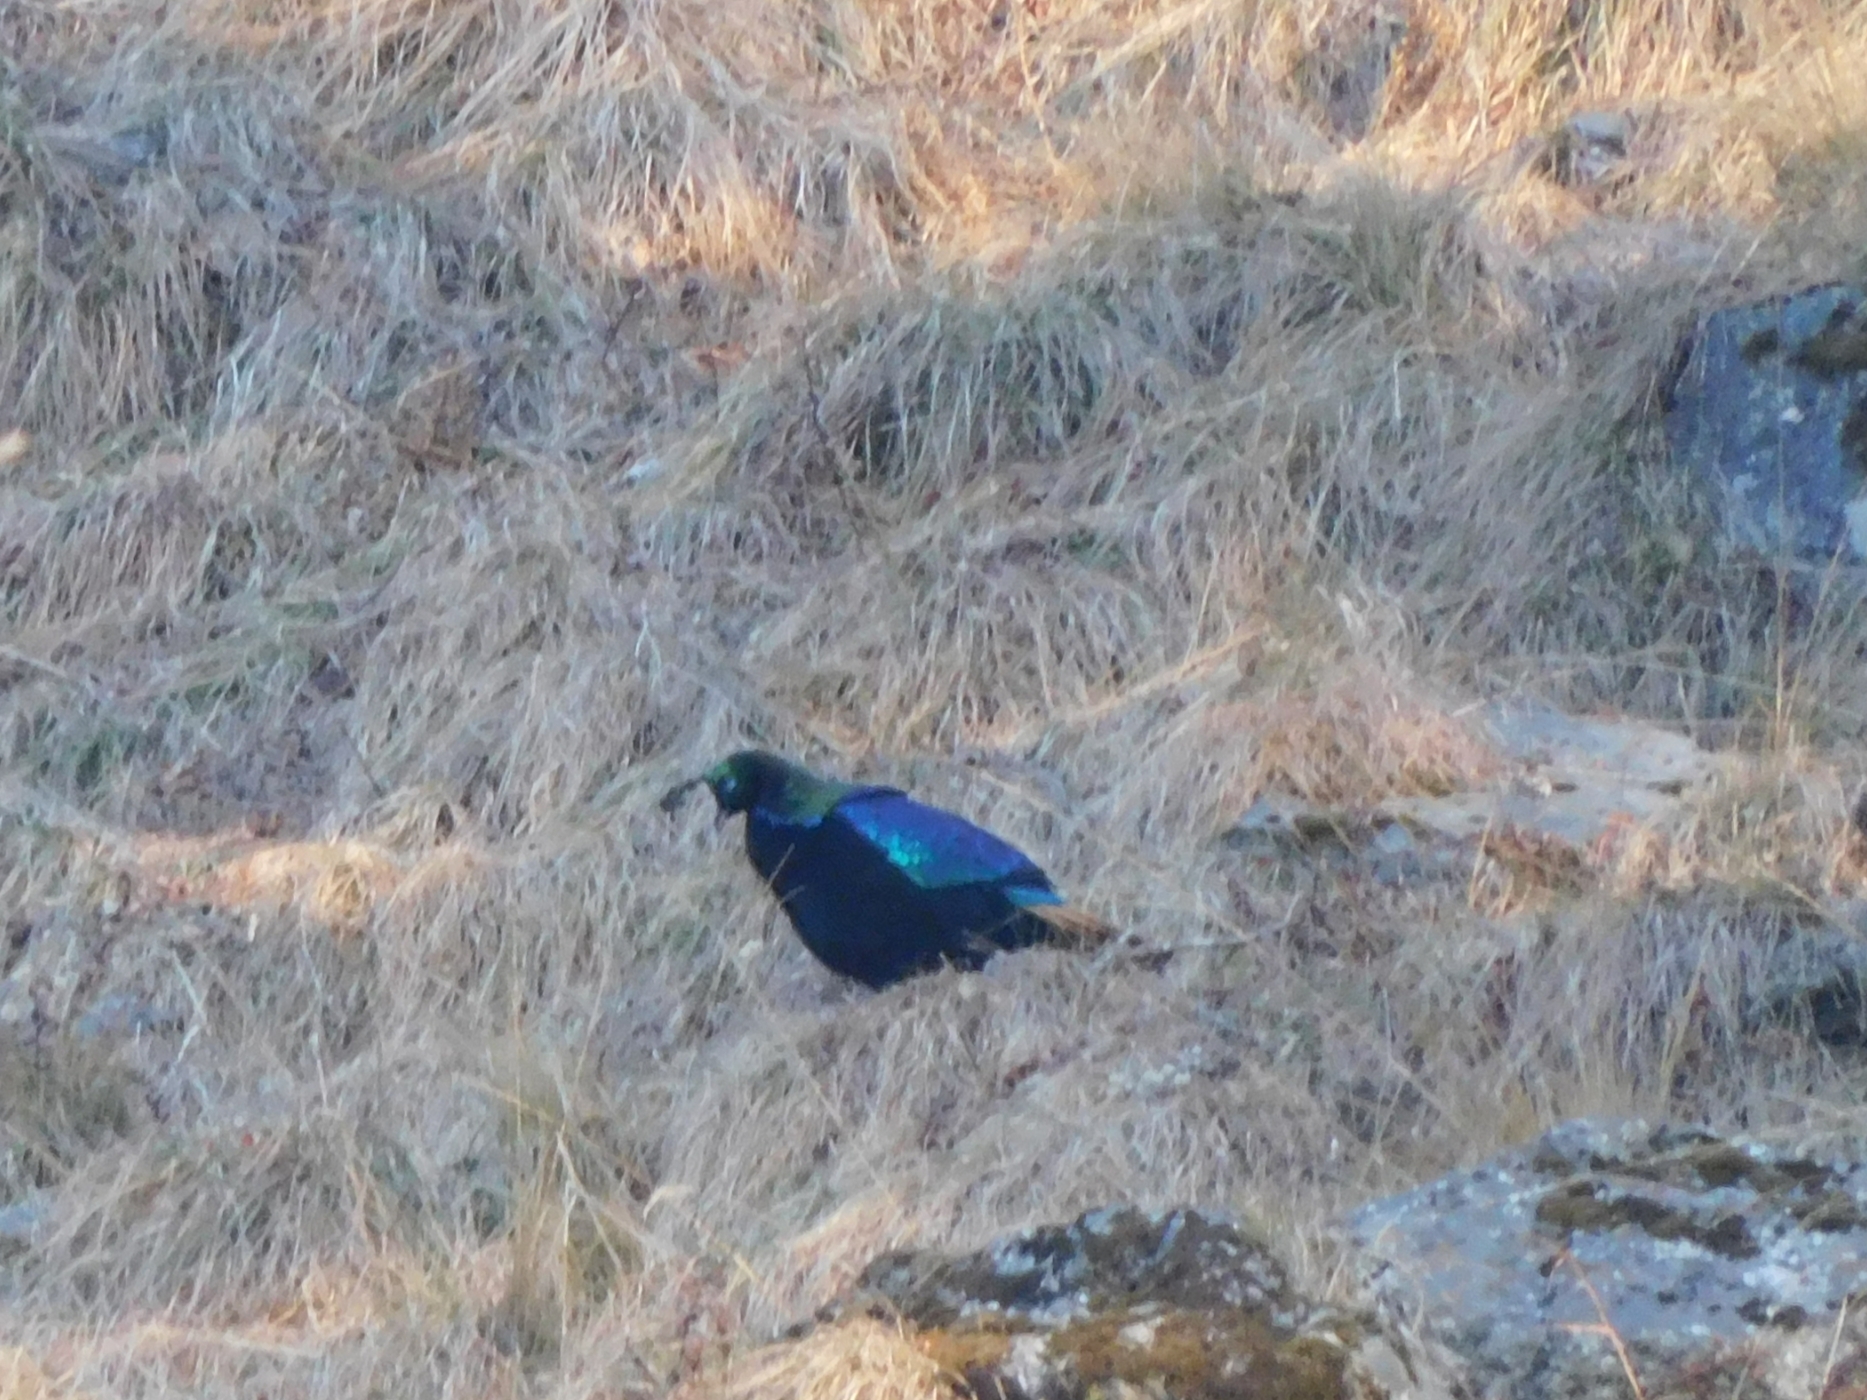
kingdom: Animalia
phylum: Chordata
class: Aves
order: Galliformes
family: Phasianidae
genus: Lophophorus
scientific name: Lophophorus impejanus
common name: Himalayan monal
